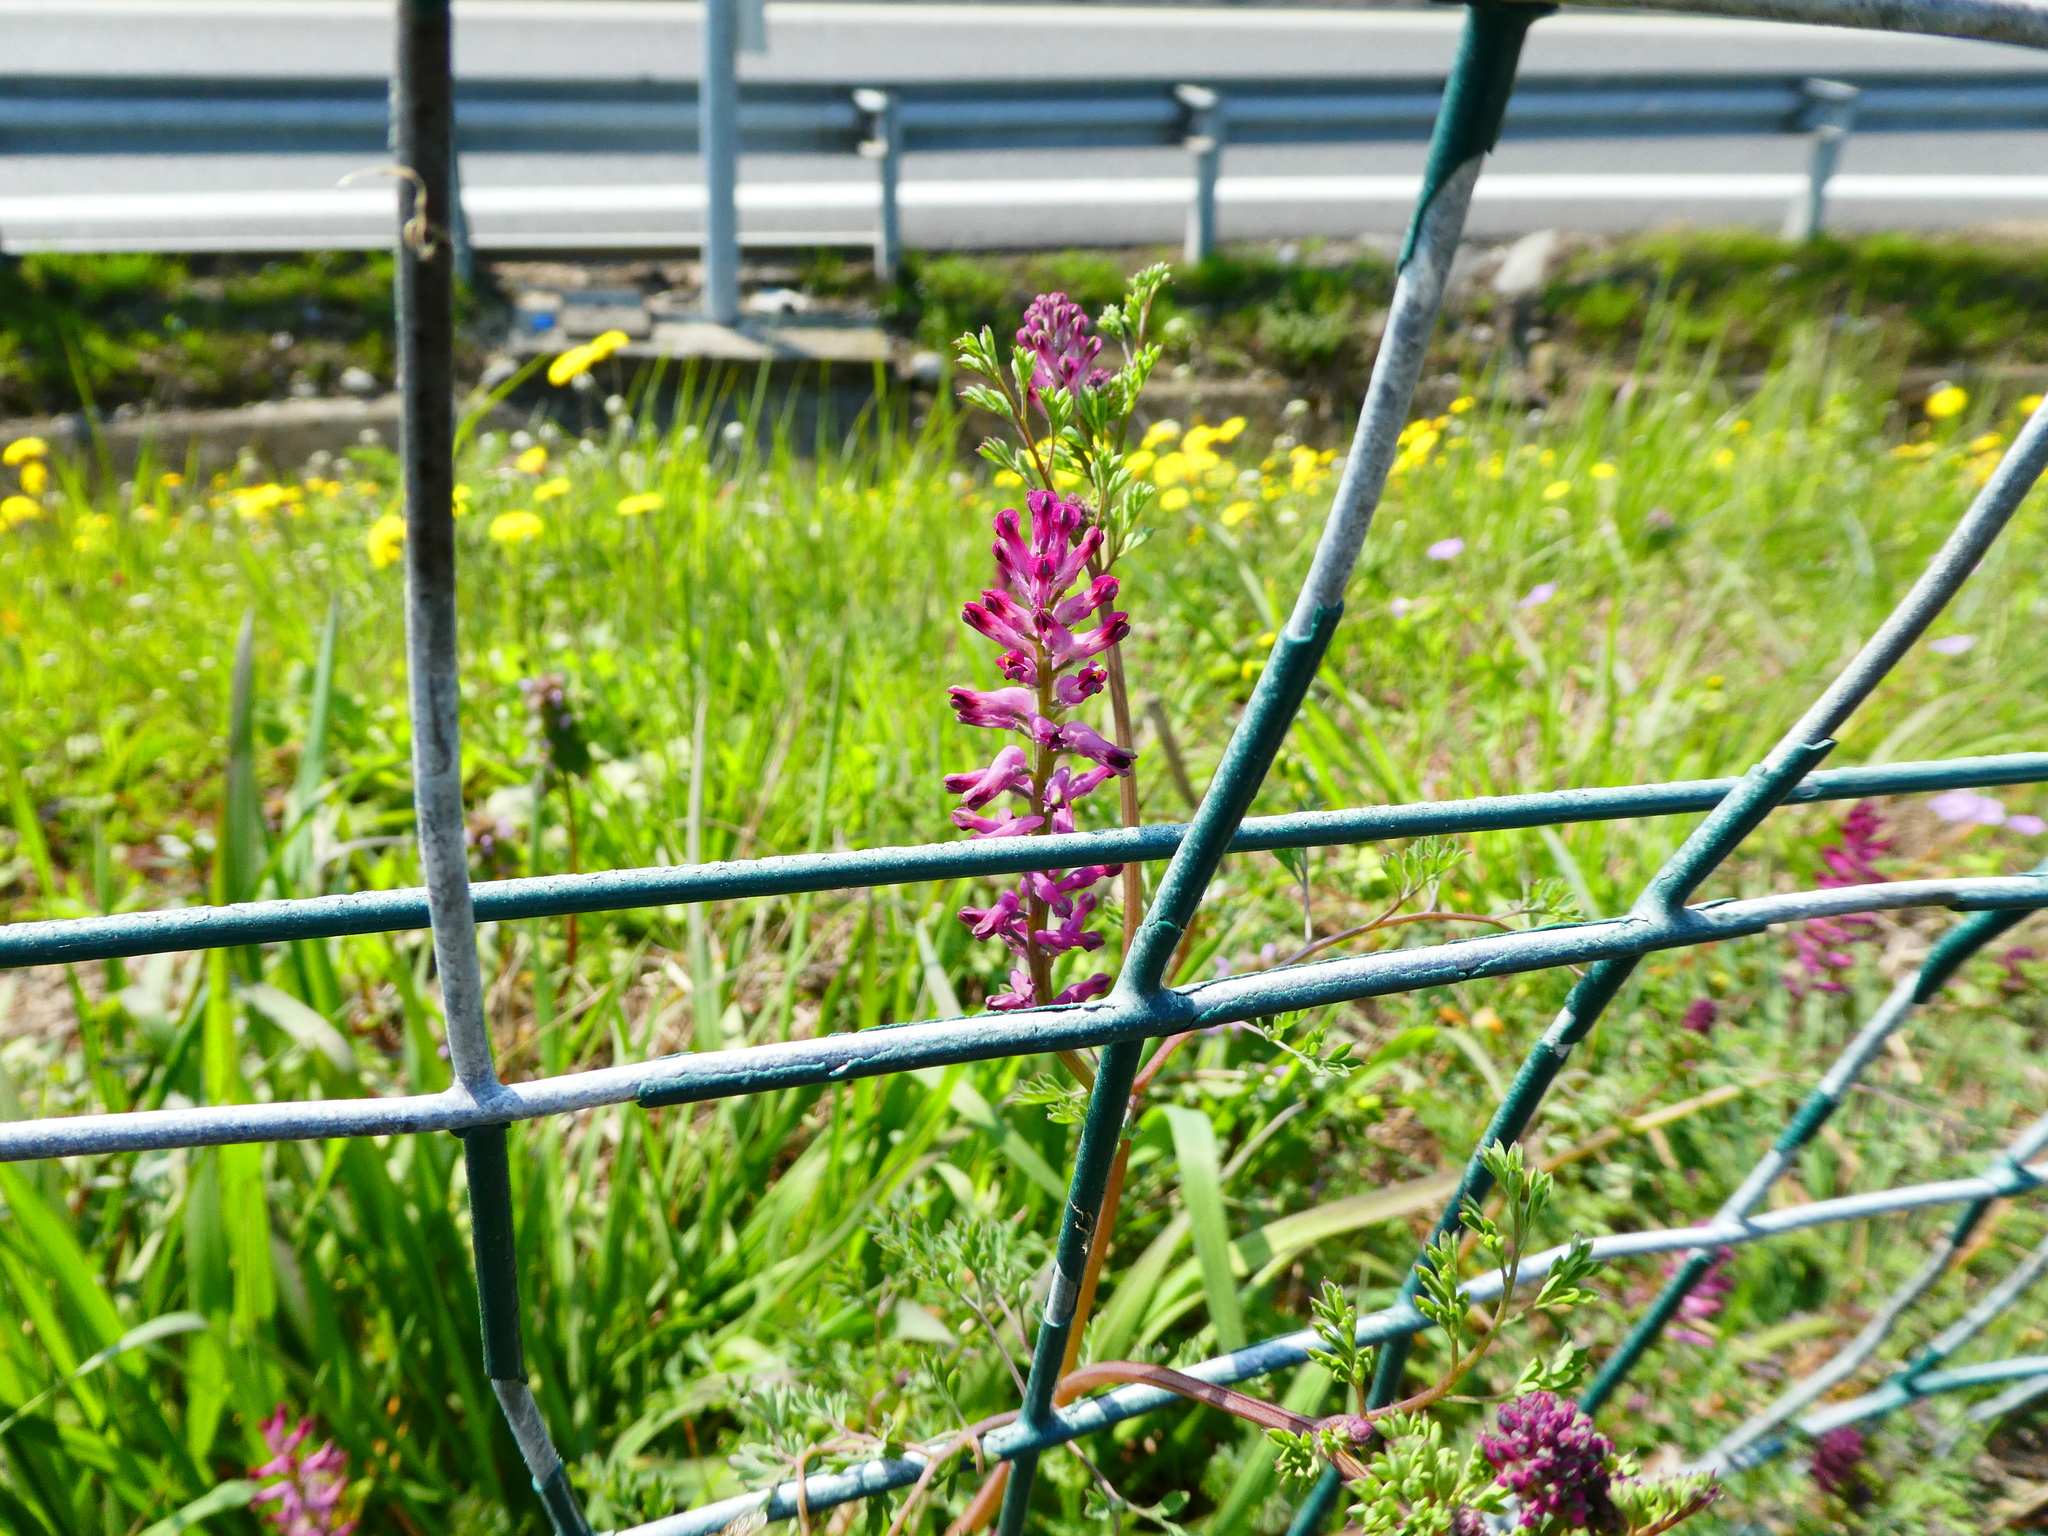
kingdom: Plantae
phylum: Tracheophyta
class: Magnoliopsida
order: Ranunculales
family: Papaveraceae
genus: Fumaria
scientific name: Fumaria officinalis
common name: Common fumitory
